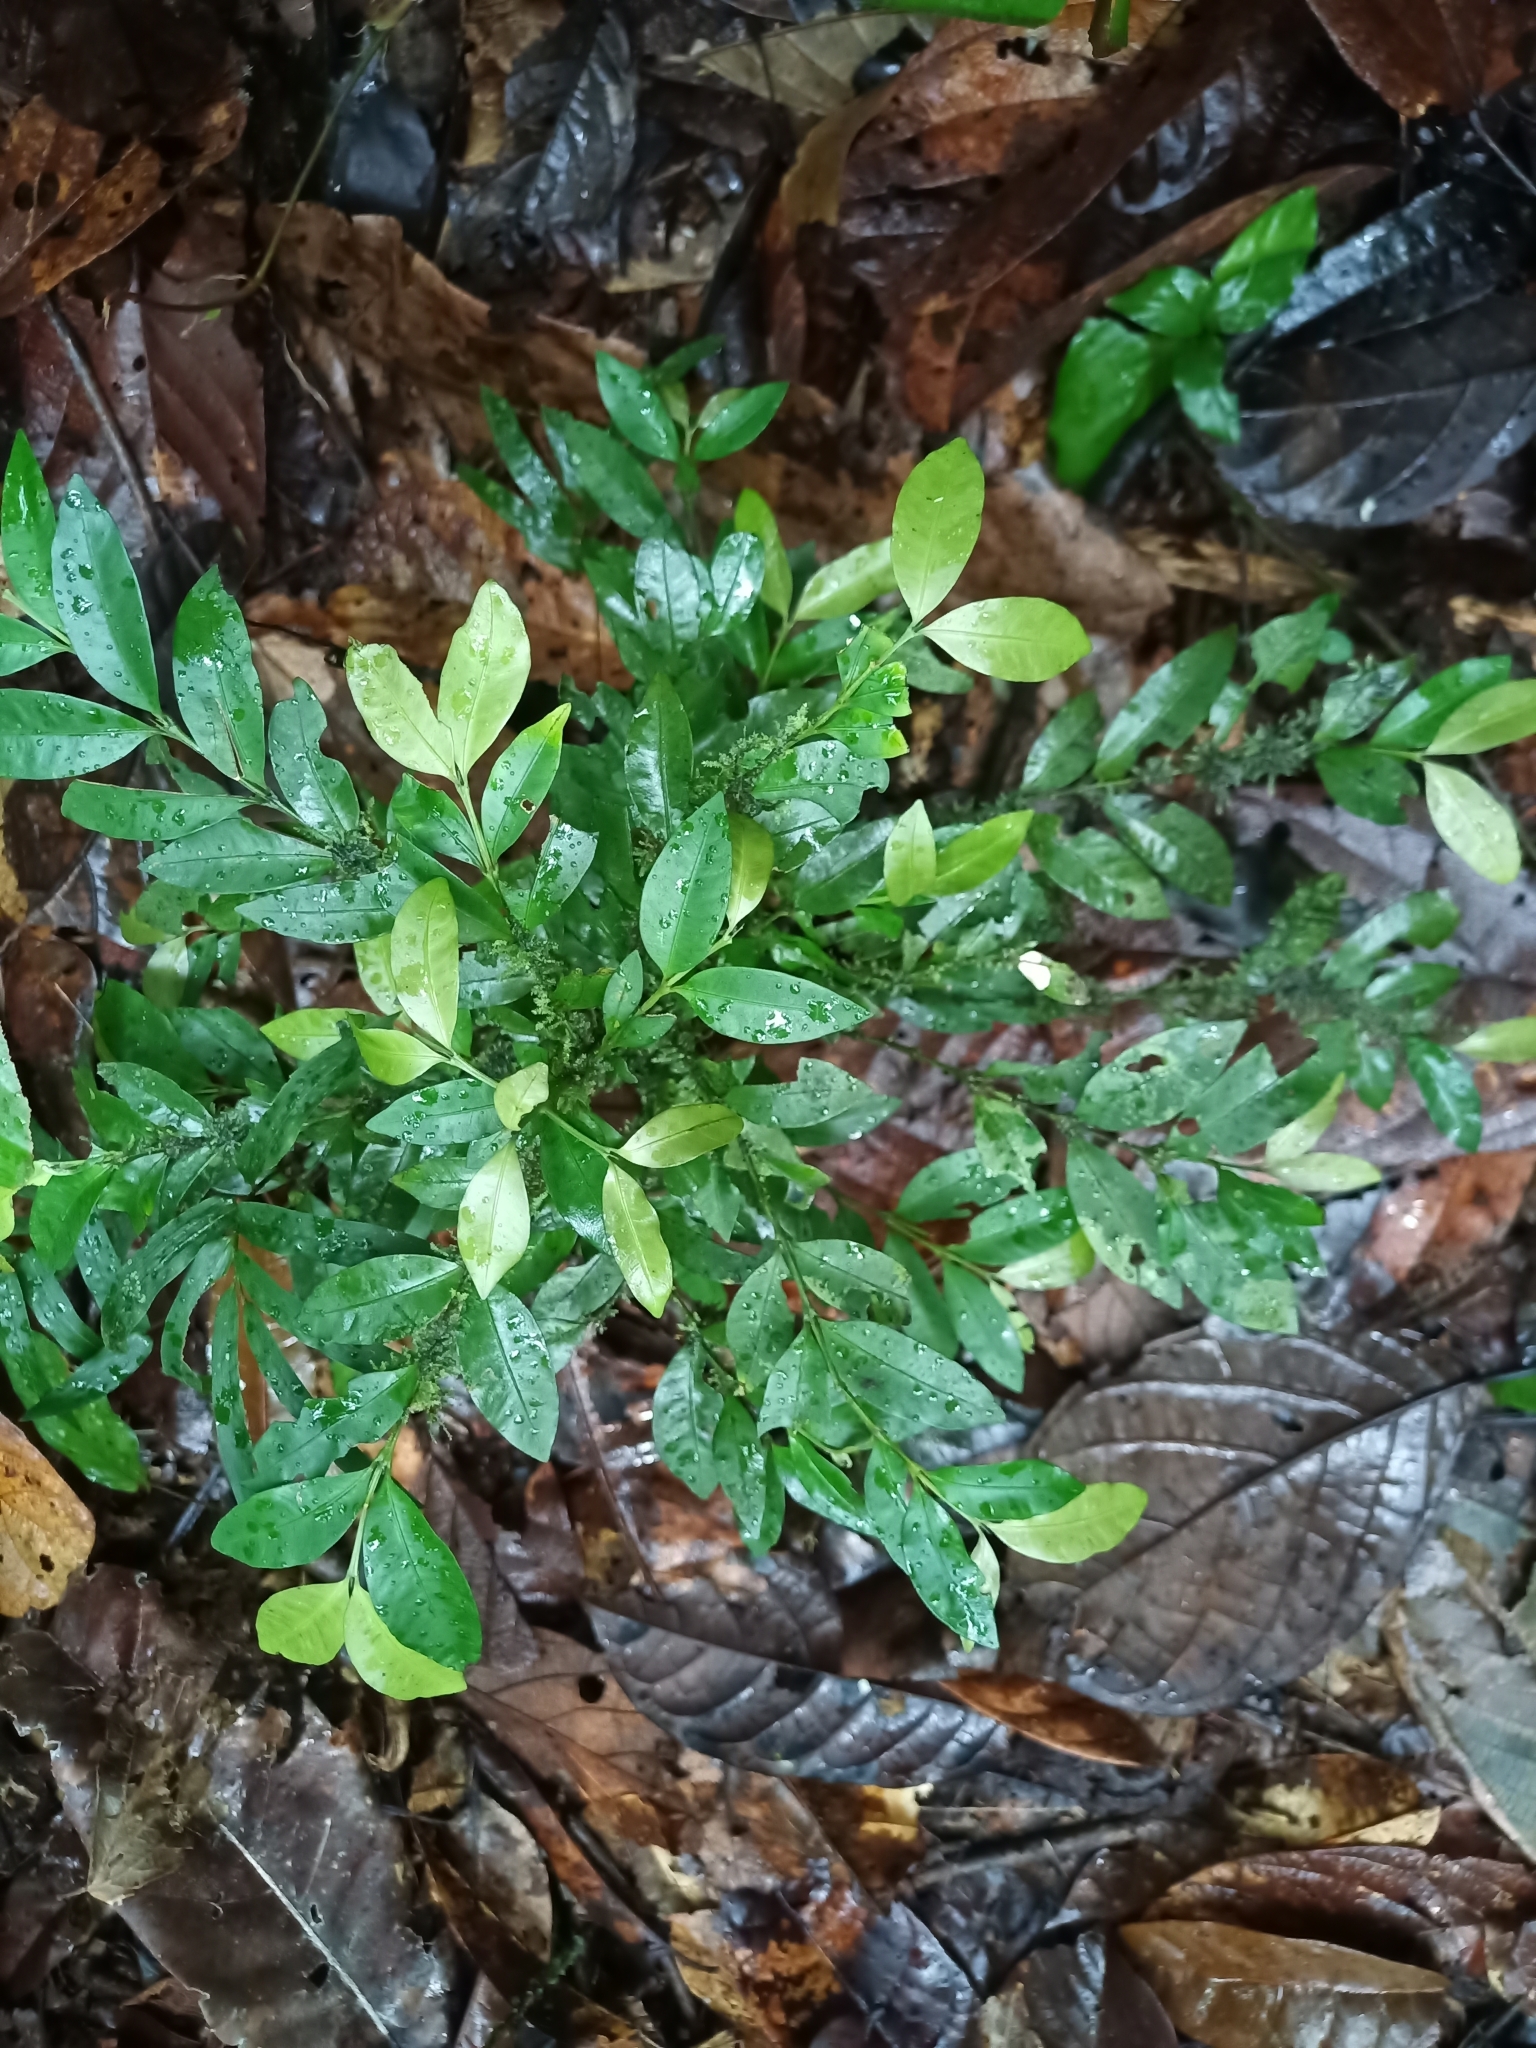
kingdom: Plantae
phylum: Tracheophyta
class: Magnoliopsida
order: Gentianales
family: Rubiaceae
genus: Faramea
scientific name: Faramea lourteigiana
